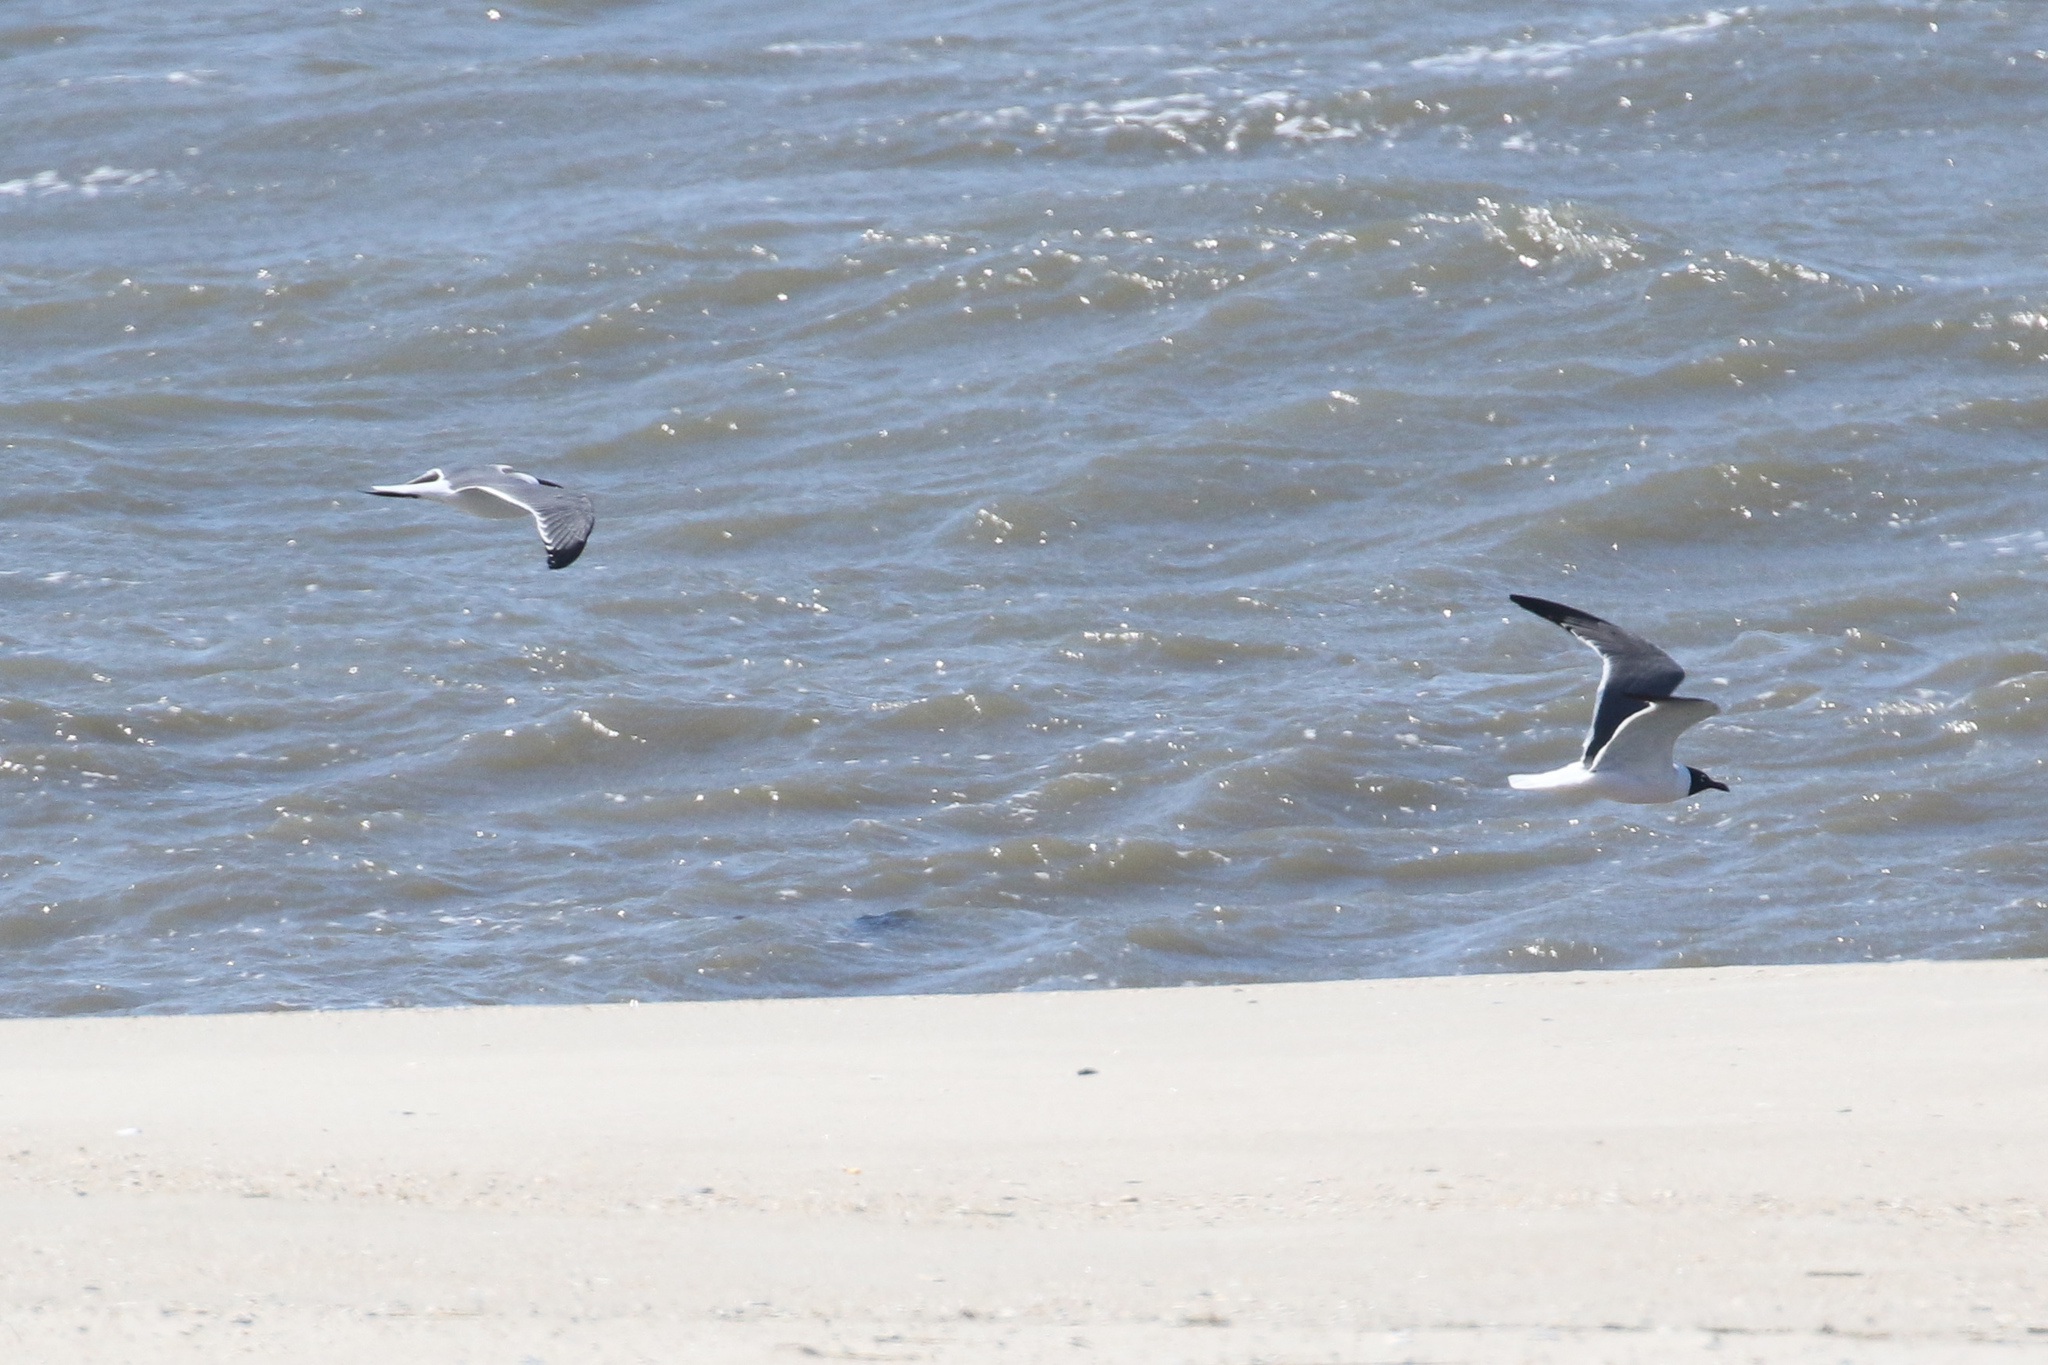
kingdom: Animalia
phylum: Chordata
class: Aves
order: Charadriiformes
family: Laridae
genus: Leucophaeus
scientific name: Leucophaeus atricilla
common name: Laughing gull
